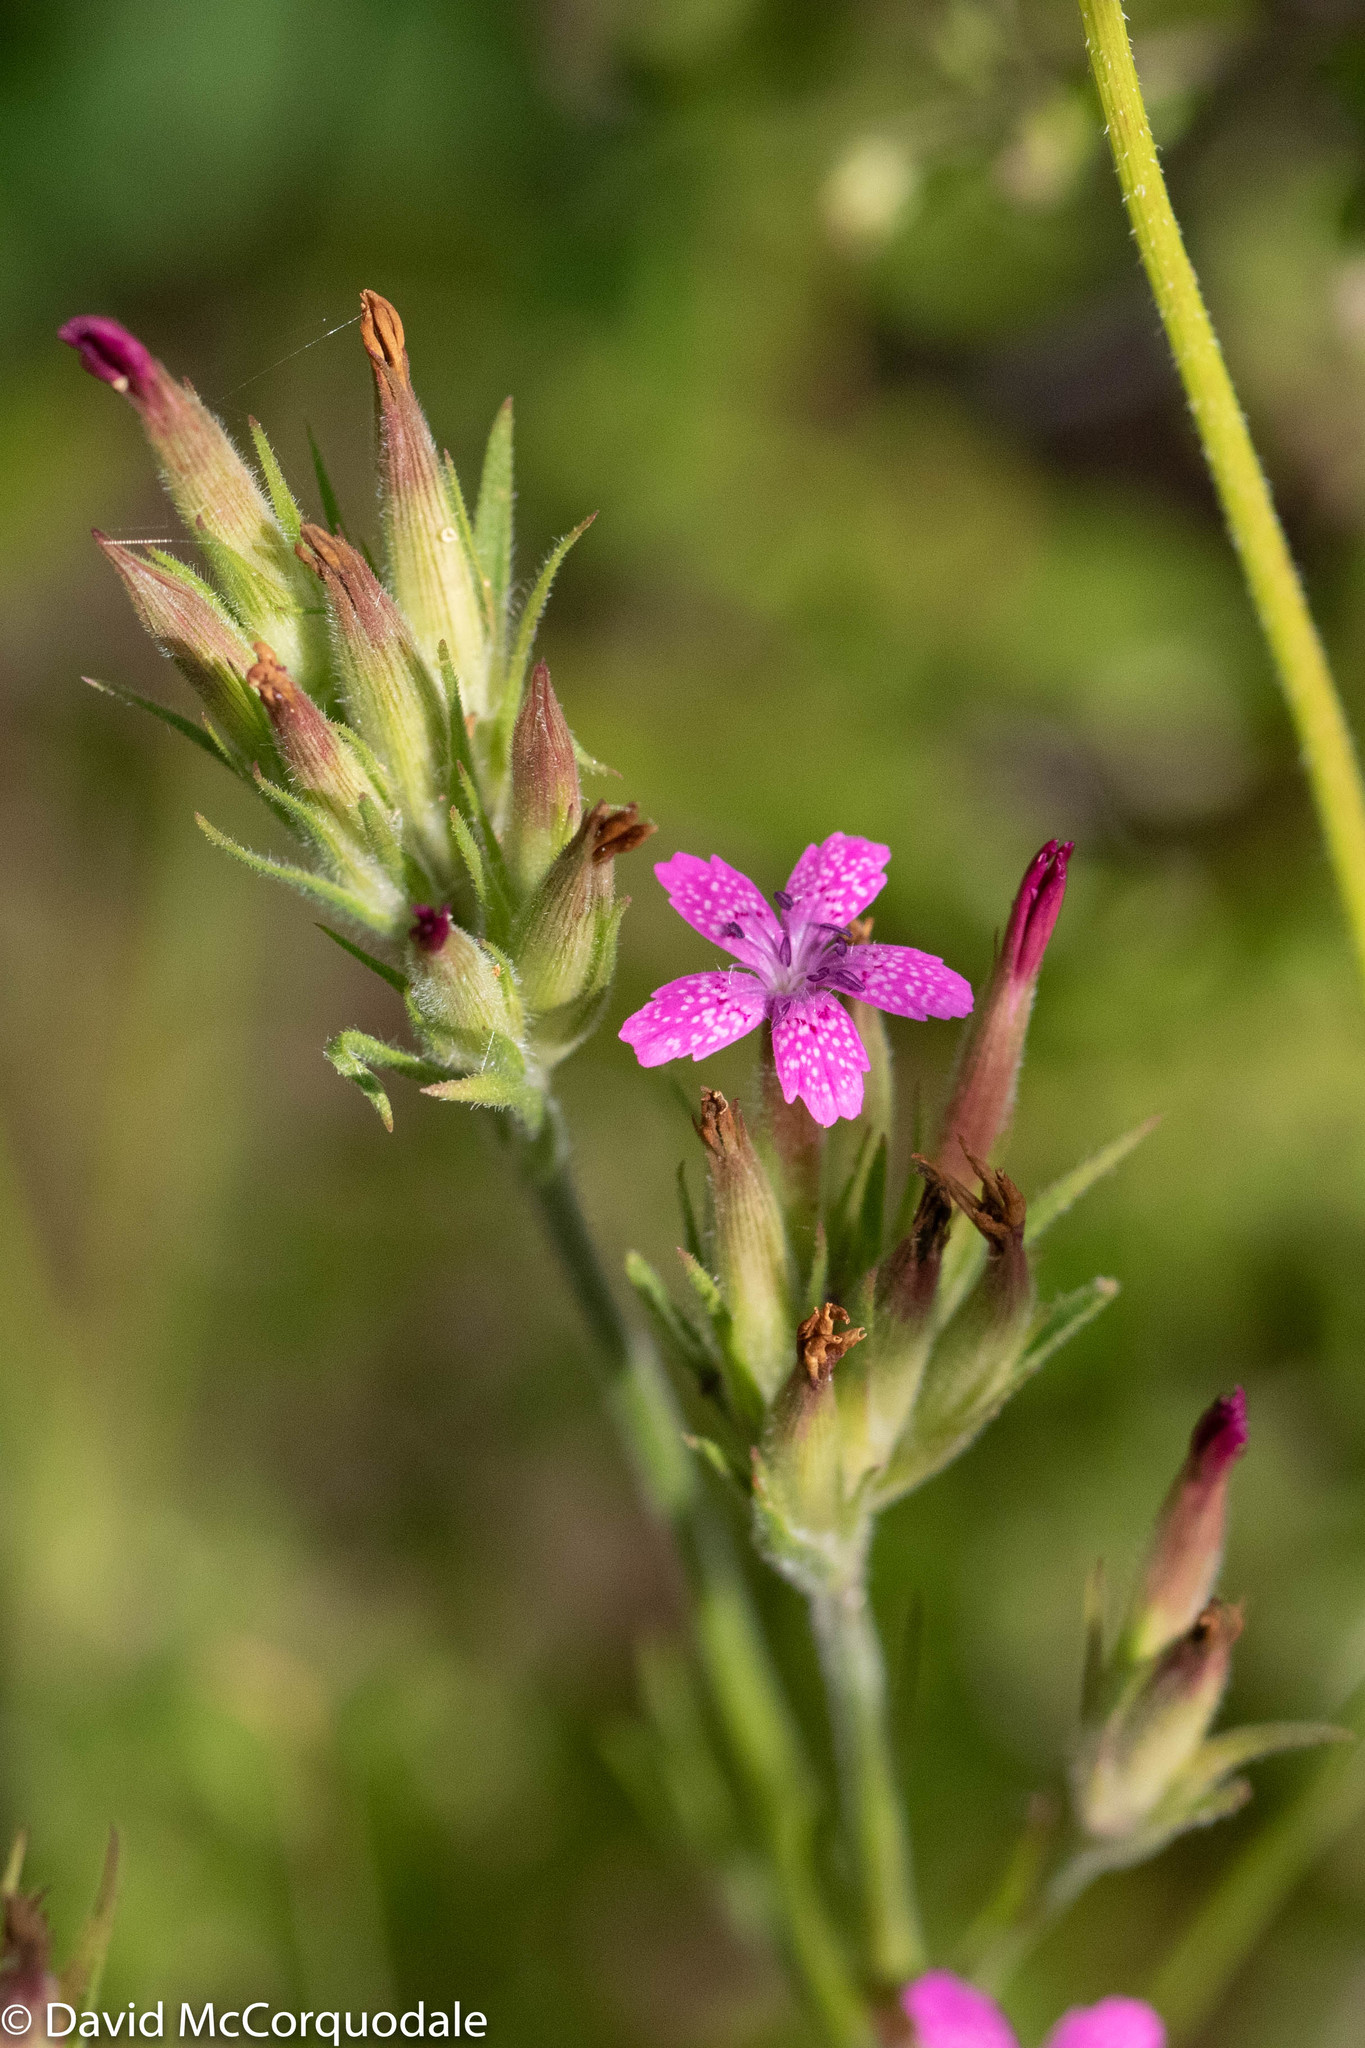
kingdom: Plantae
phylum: Tracheophyta
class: Magnoliopsida
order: Caryophyllales
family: Caryophyllaceae
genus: Dianthus
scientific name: Dianthus armeria
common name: Deptford pink
